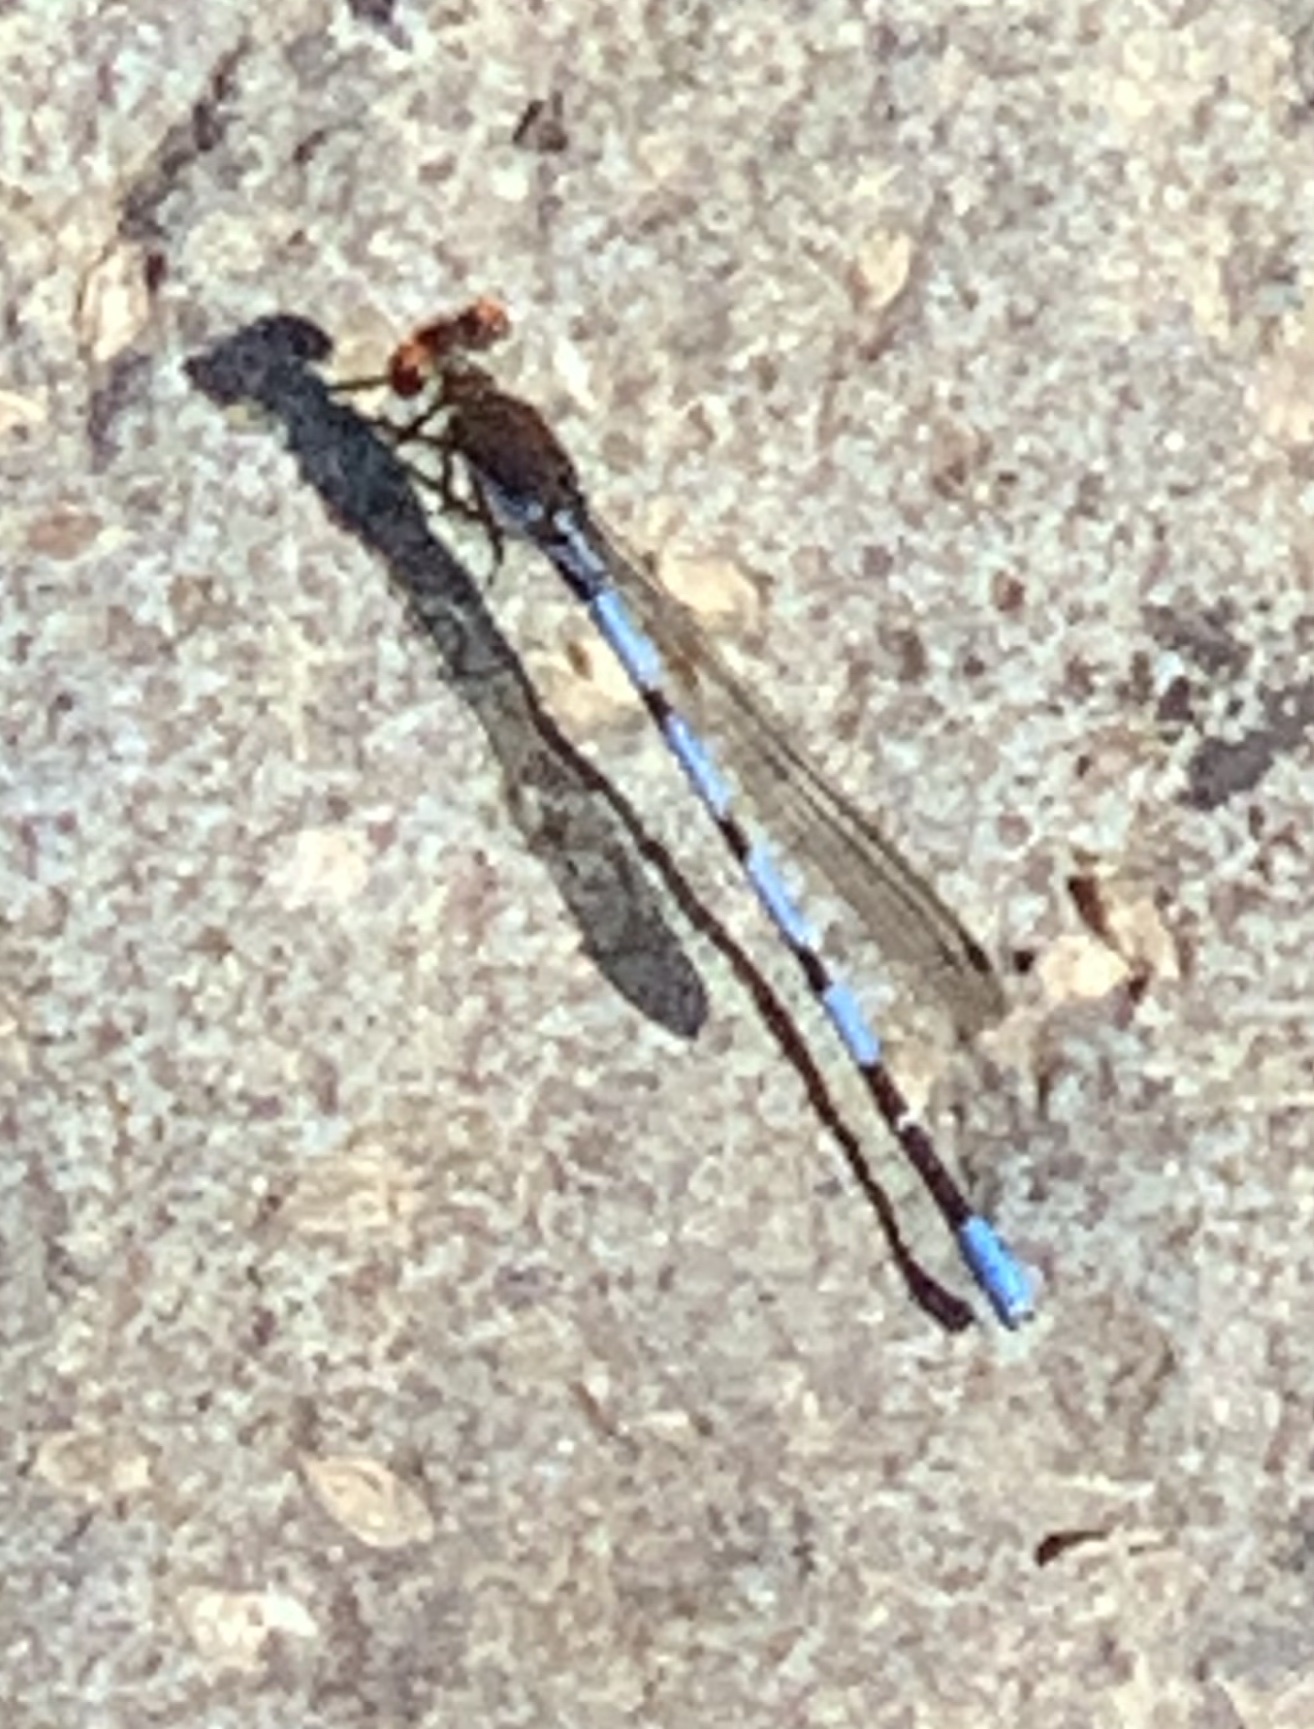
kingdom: Animalia
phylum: Arthropoda
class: Insecta
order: Odonata
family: Coenagrionidae
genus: Argia
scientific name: Argia oenea
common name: Fiery-eyed dancer
